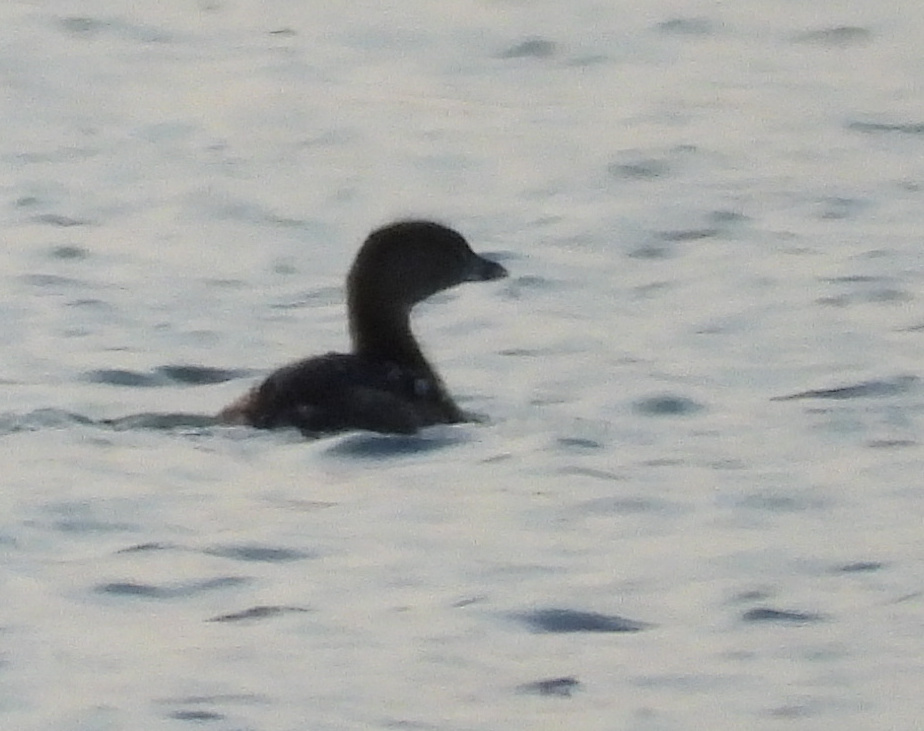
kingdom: Animalia
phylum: Chordata
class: Aves
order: Podicipediformes
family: Podicipedidae
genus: Podilymbus
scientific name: Podilymbus podiceps
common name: Pied-billed grebe
